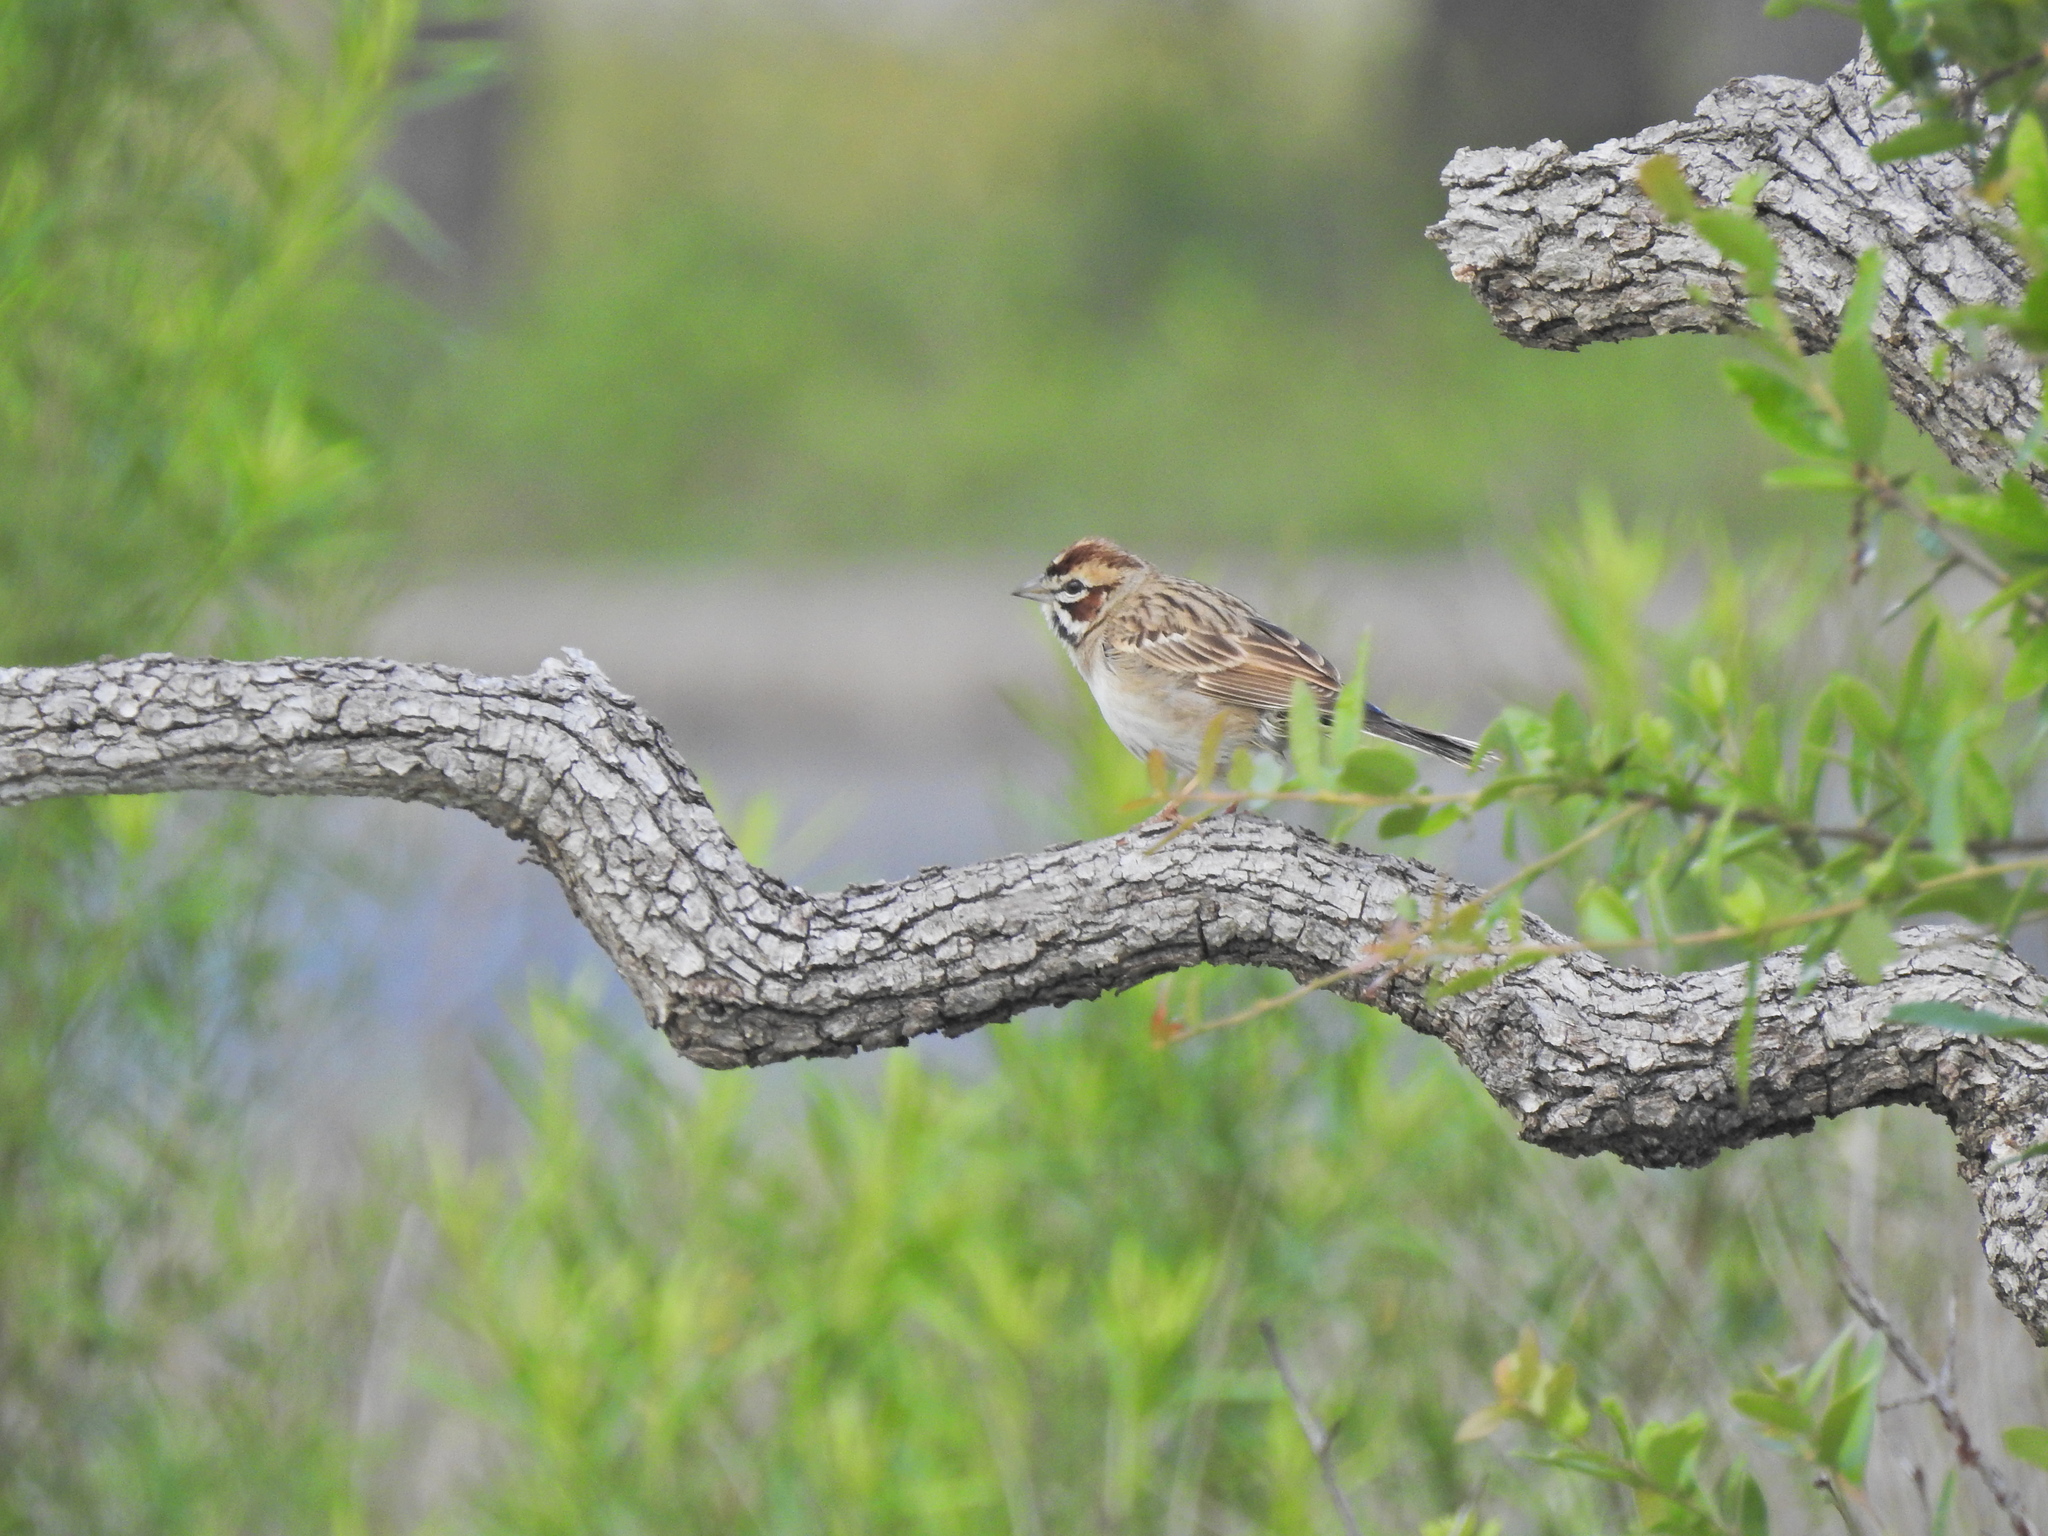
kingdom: Animalia
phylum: Chordata
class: Aves
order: Passeriformes
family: Passerellidae
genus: Chondestes
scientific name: Chondestes grammacus
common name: Lark sparrow
